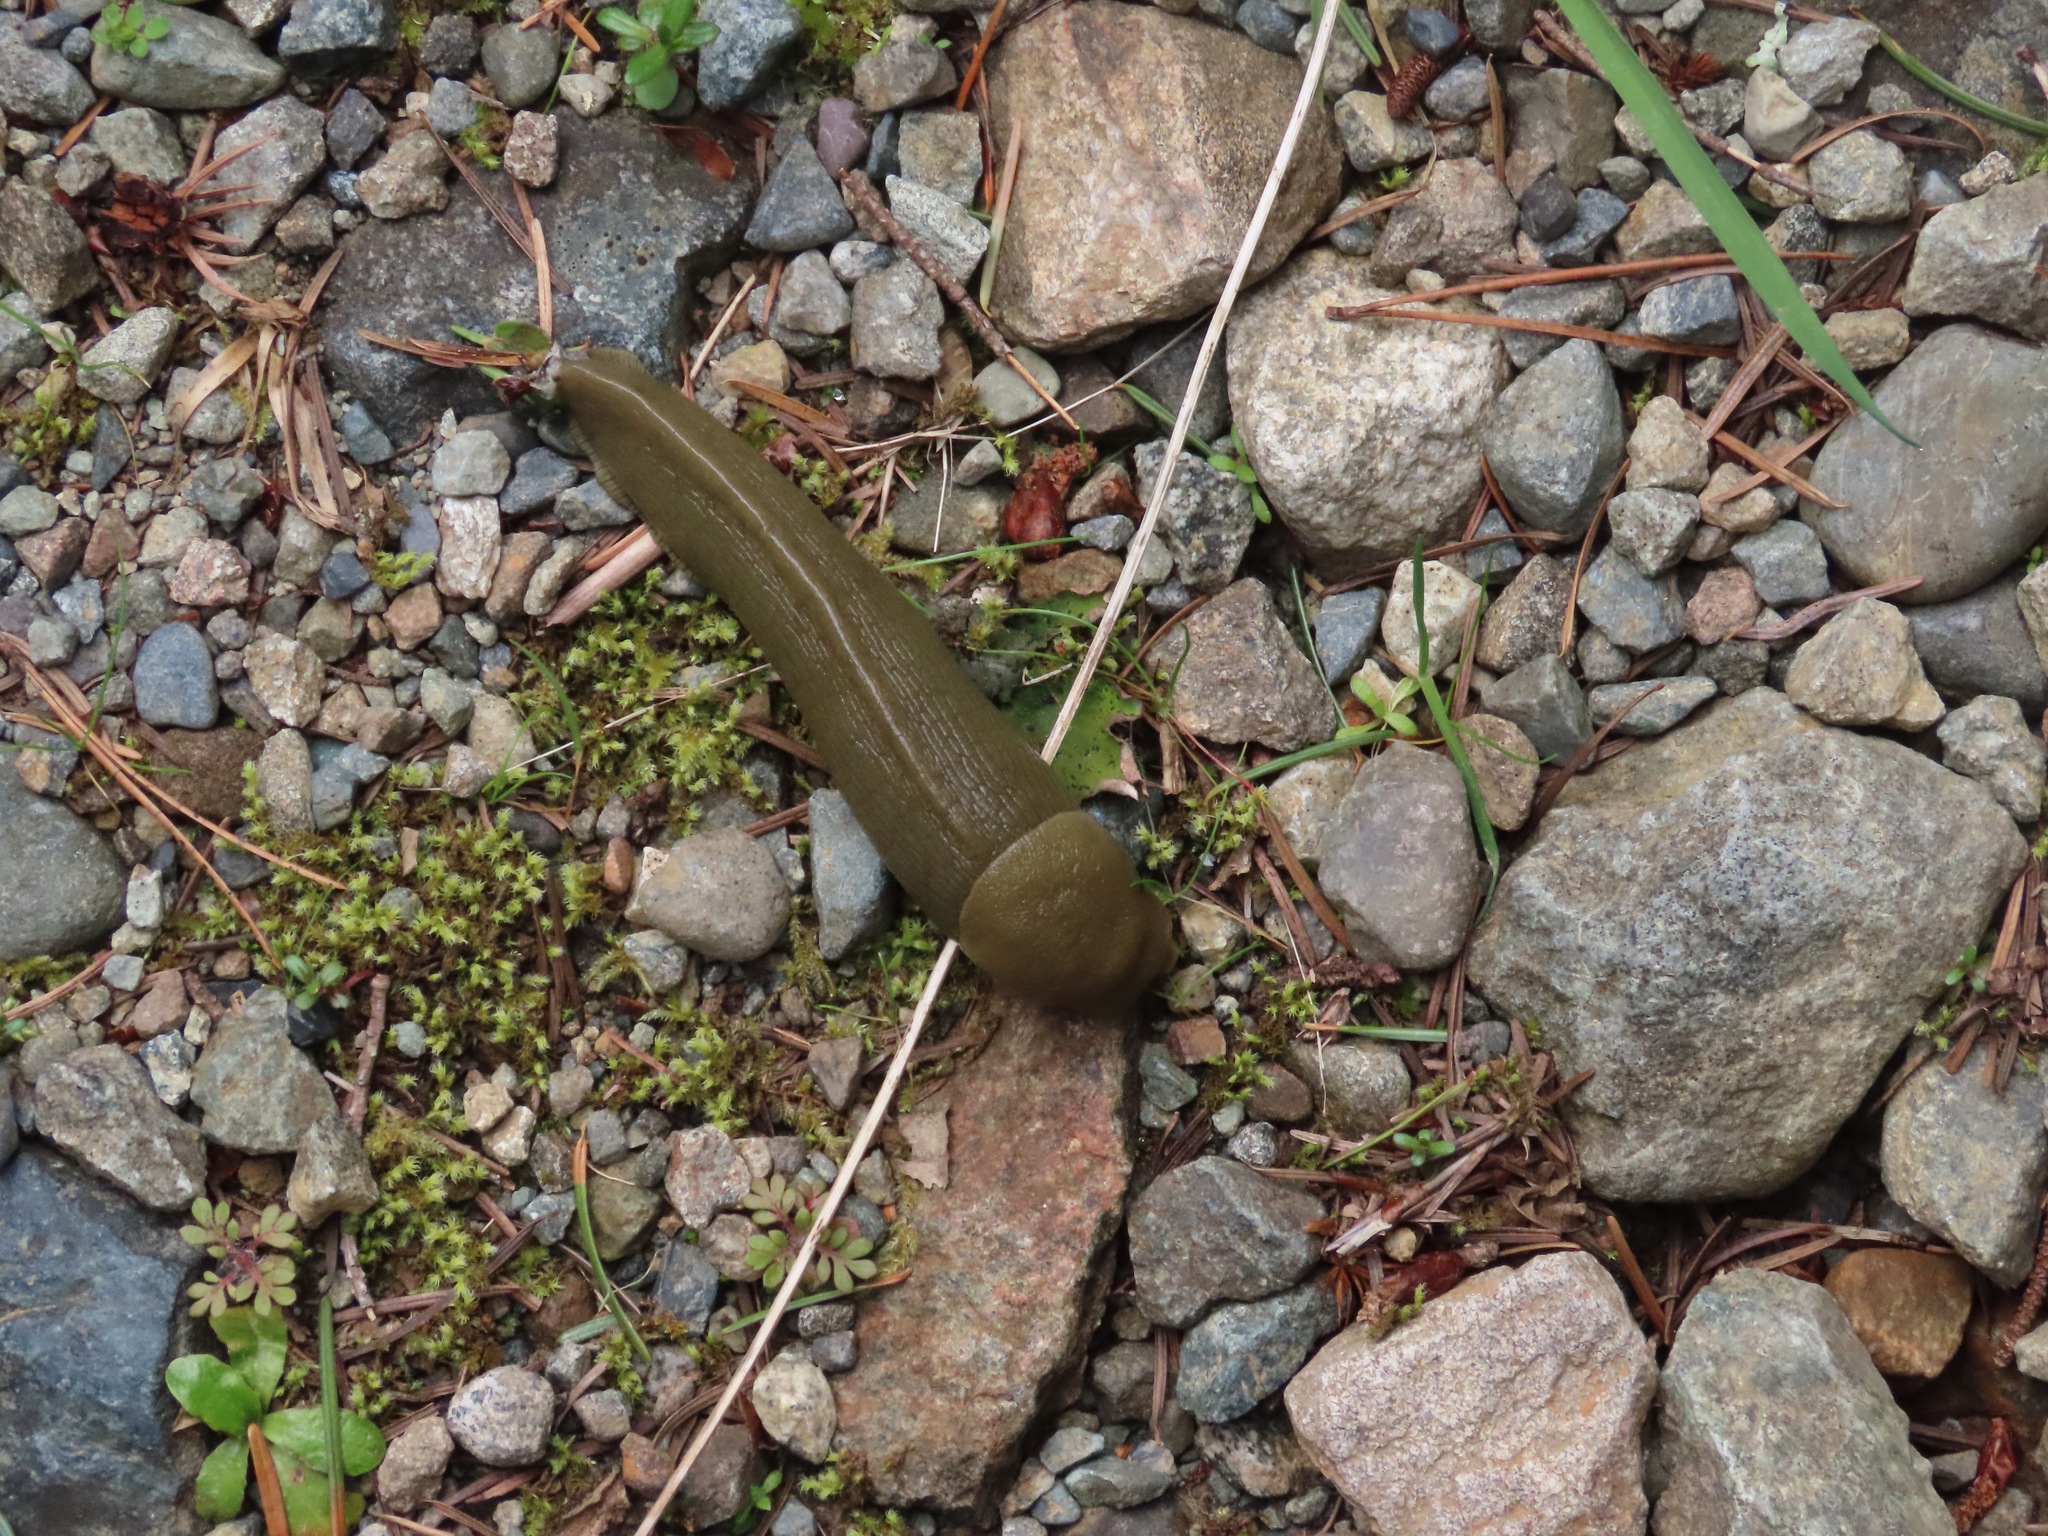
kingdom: Animalia
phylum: Mollusca
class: Gastropoda
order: Stylommatophora
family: Ariolimacidae
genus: Ariolimax
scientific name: Ariolimax columbianus
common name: Pacific banana slug
